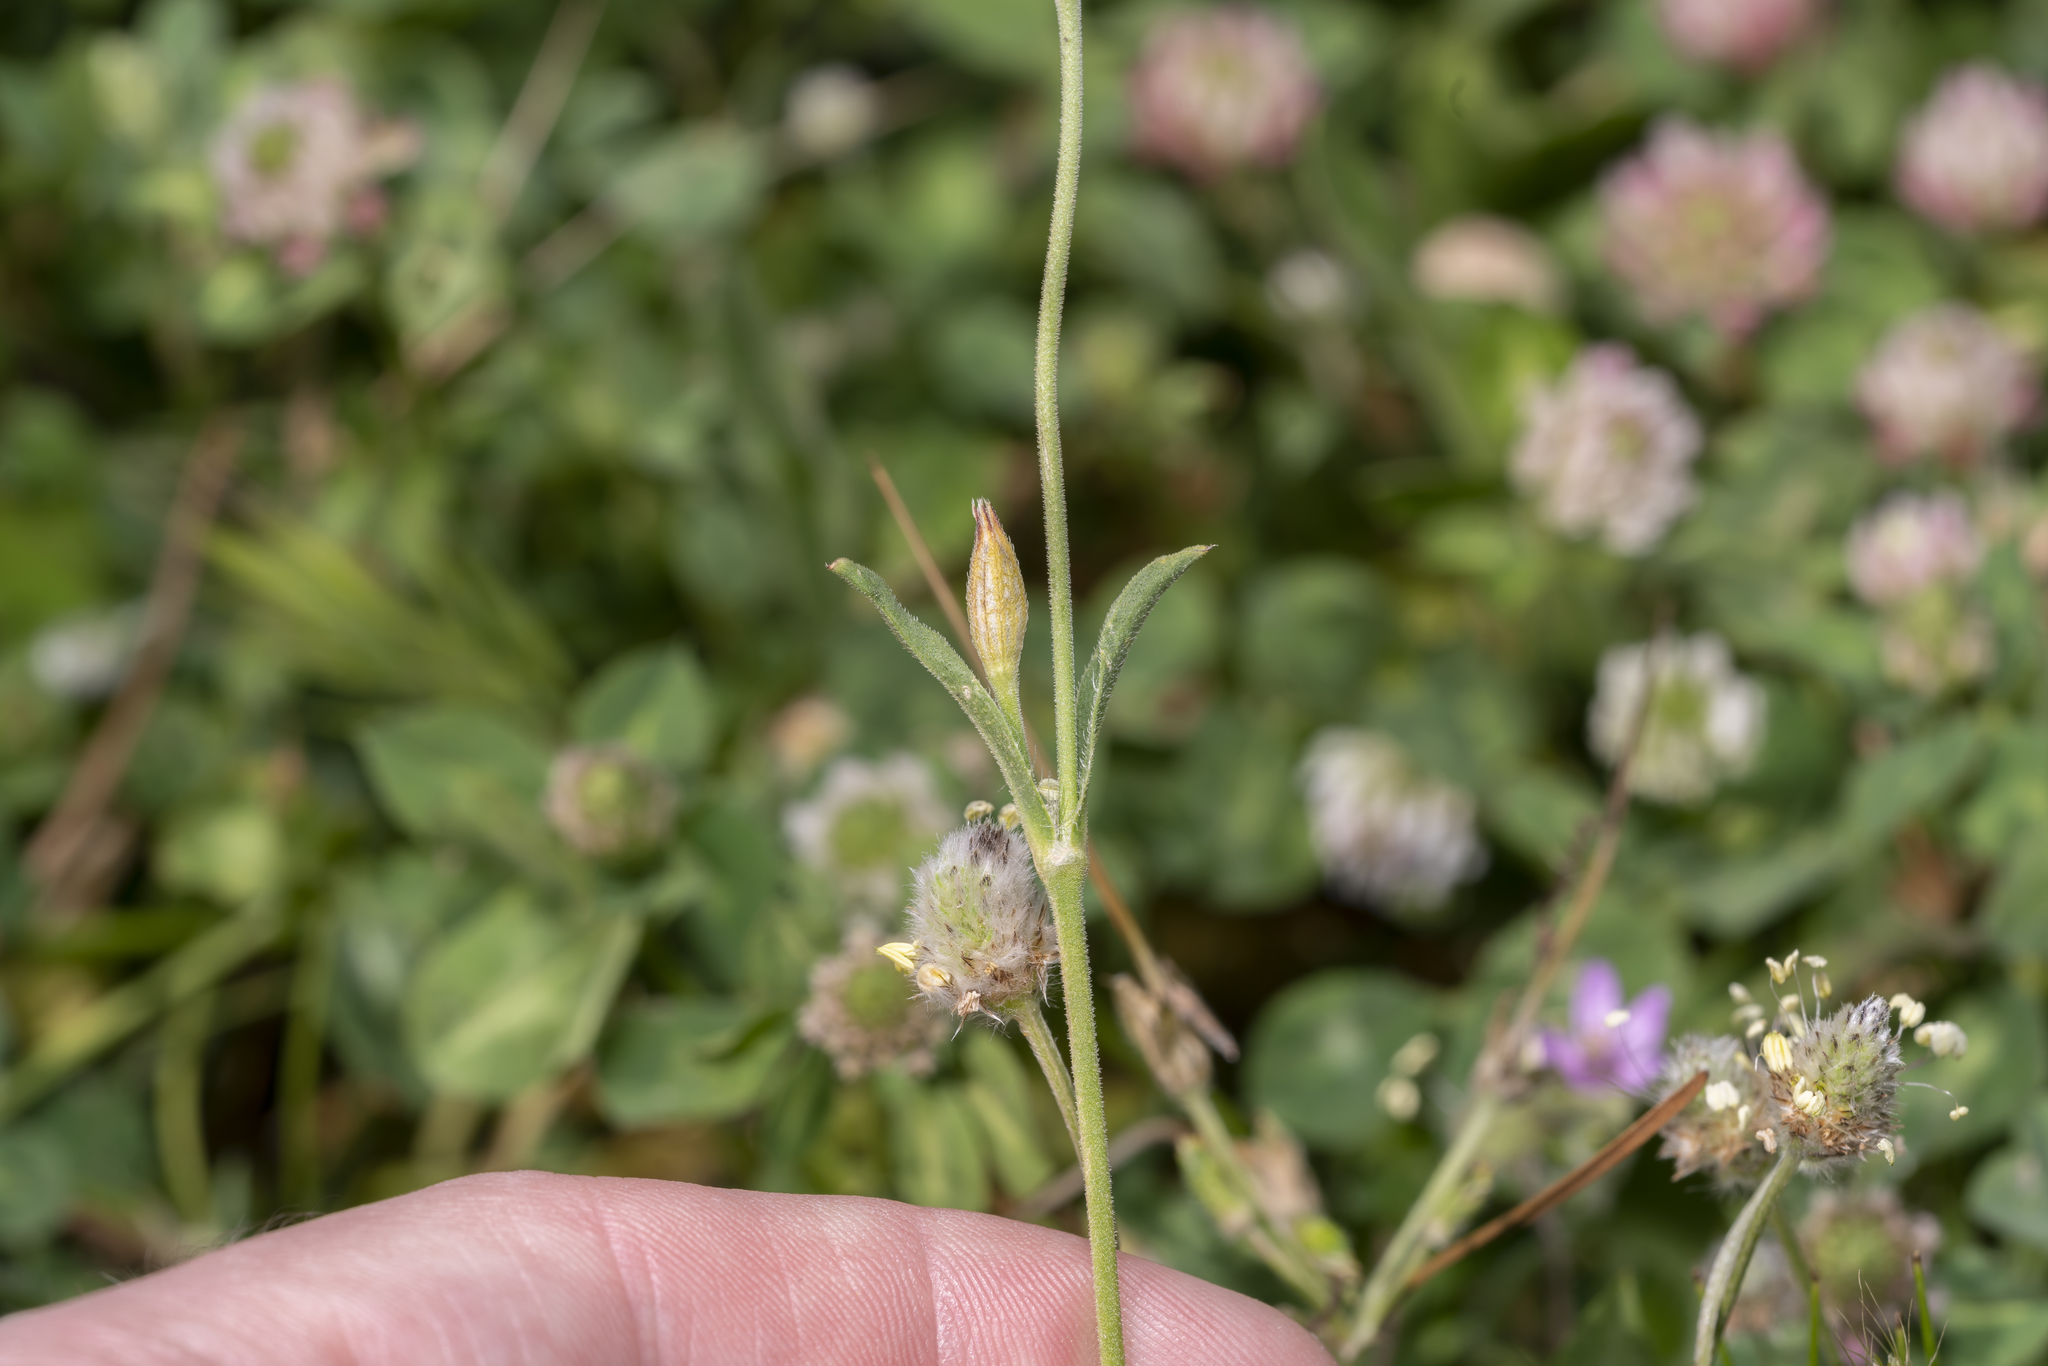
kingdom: Plantae
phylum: Tracheophyta
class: Magnoliopsida
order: Caryophyllales
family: Caryophyllaceae
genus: Silene
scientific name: Silene nocturna
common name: Mediterranean catchfly
